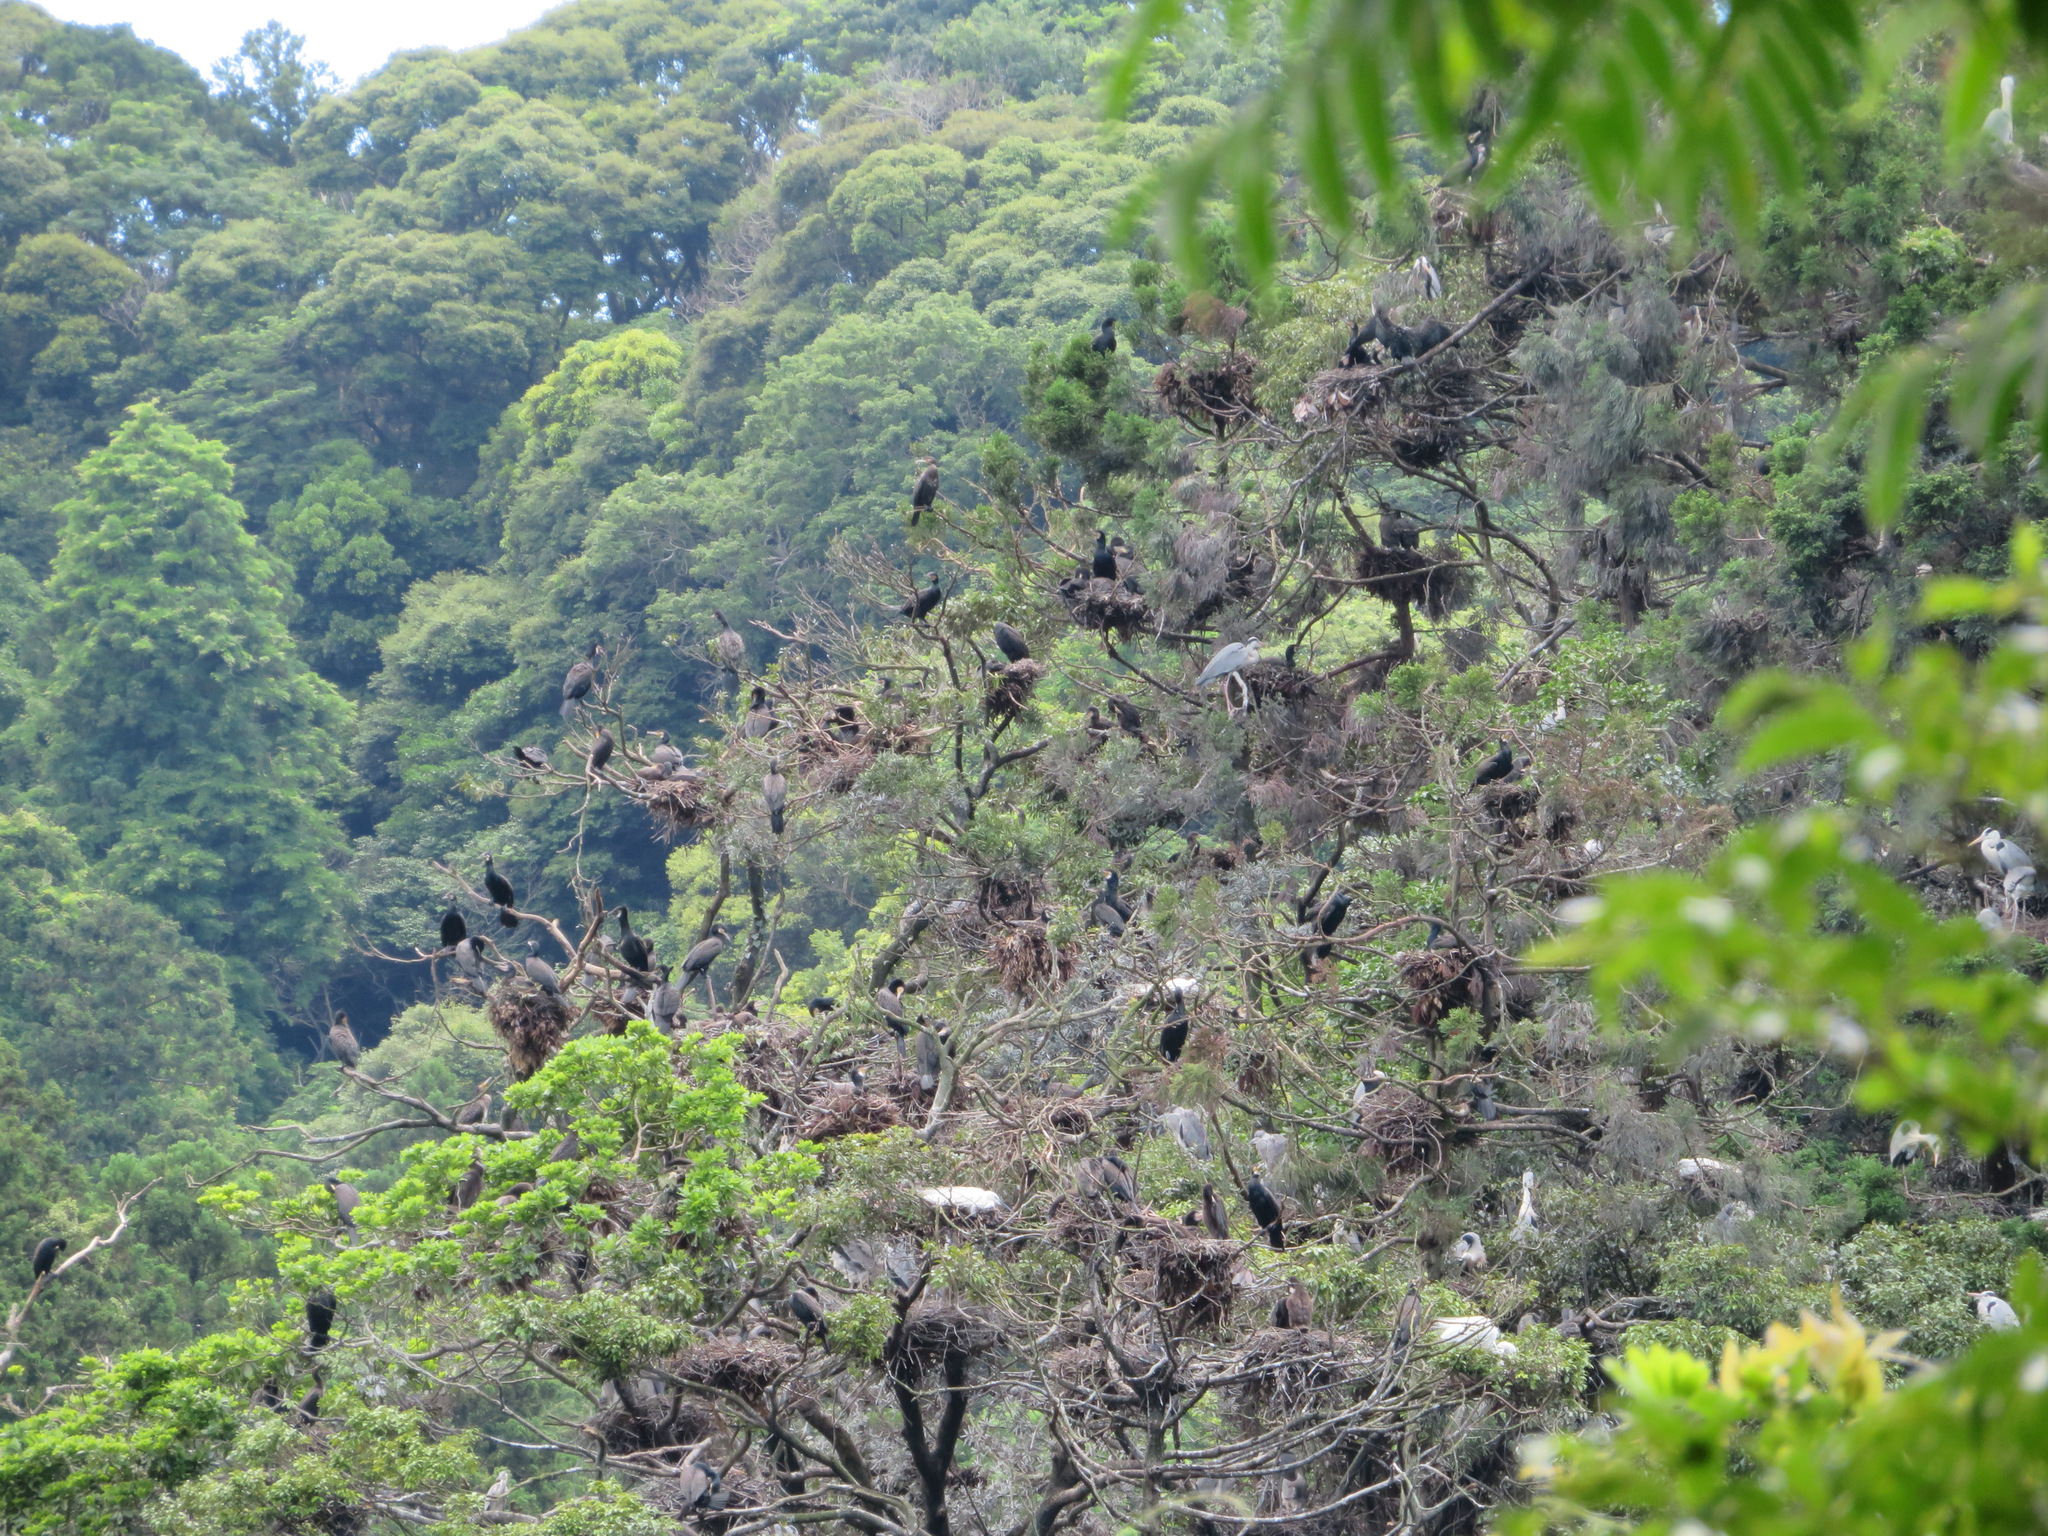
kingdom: Animalia
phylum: Chordata
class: Aves
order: Suliformes
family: Phalacrocoracidae
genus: Phalacrocorax
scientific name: Phalacrocorax carbo
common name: Great cormorant
